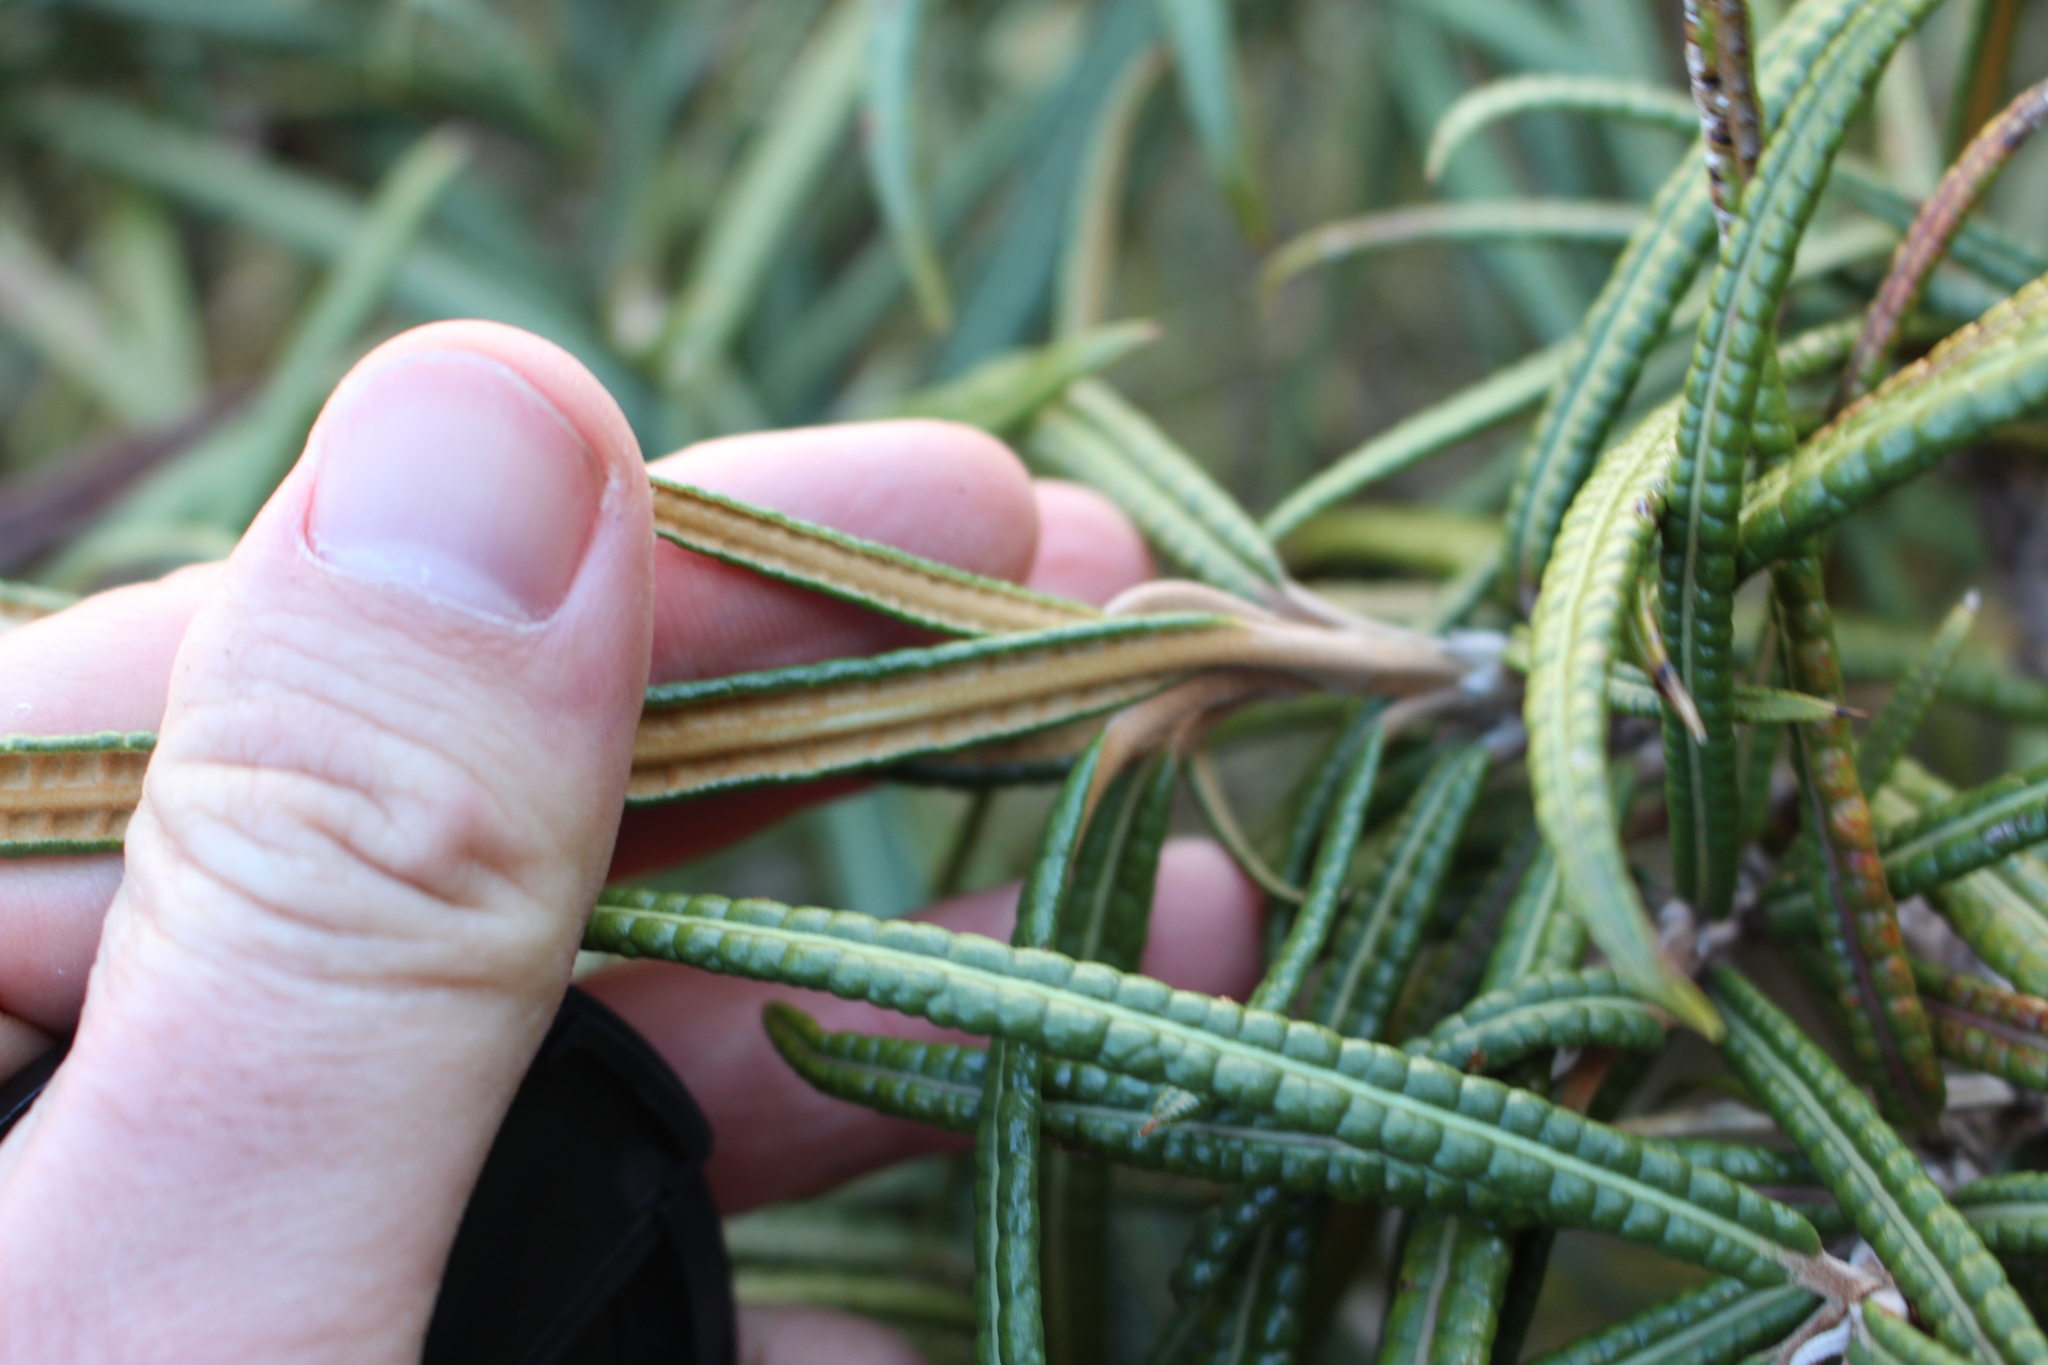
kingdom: Plantae
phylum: Tracheophyta
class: Magnoliopsida
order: Asterales
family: Asteraceae
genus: Olearia
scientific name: Olearia lacunosa
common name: Lancewood tree daisy
